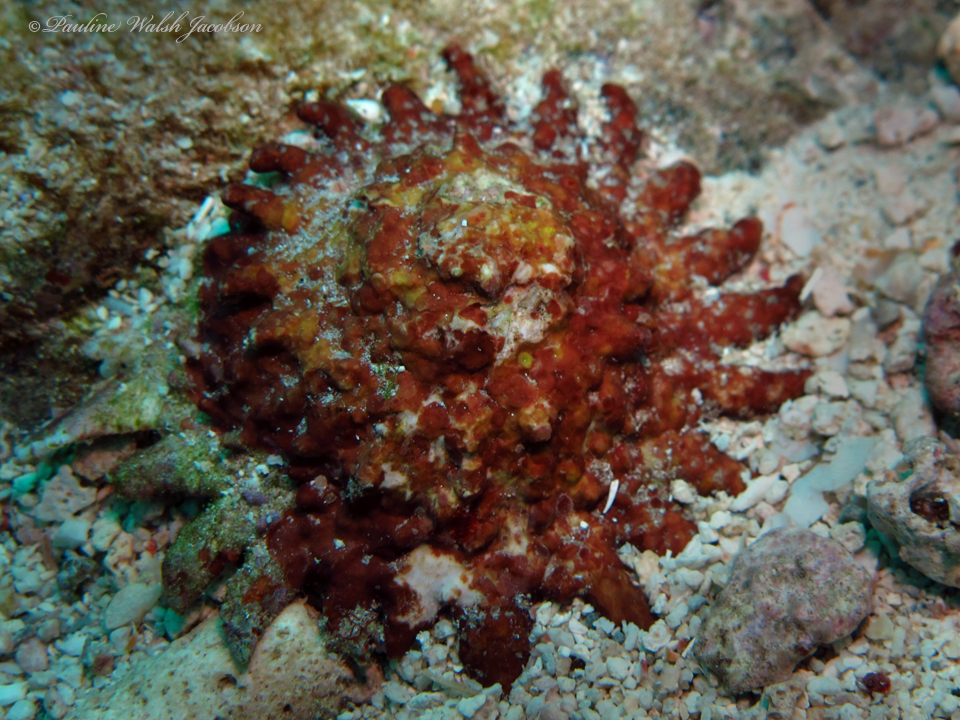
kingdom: Animalia
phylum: Mollusca
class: Gastropoda
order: Trochida
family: Turbinidae
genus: Lithopoma
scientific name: Lithopoma phoebium
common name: Long-spined starsnail
